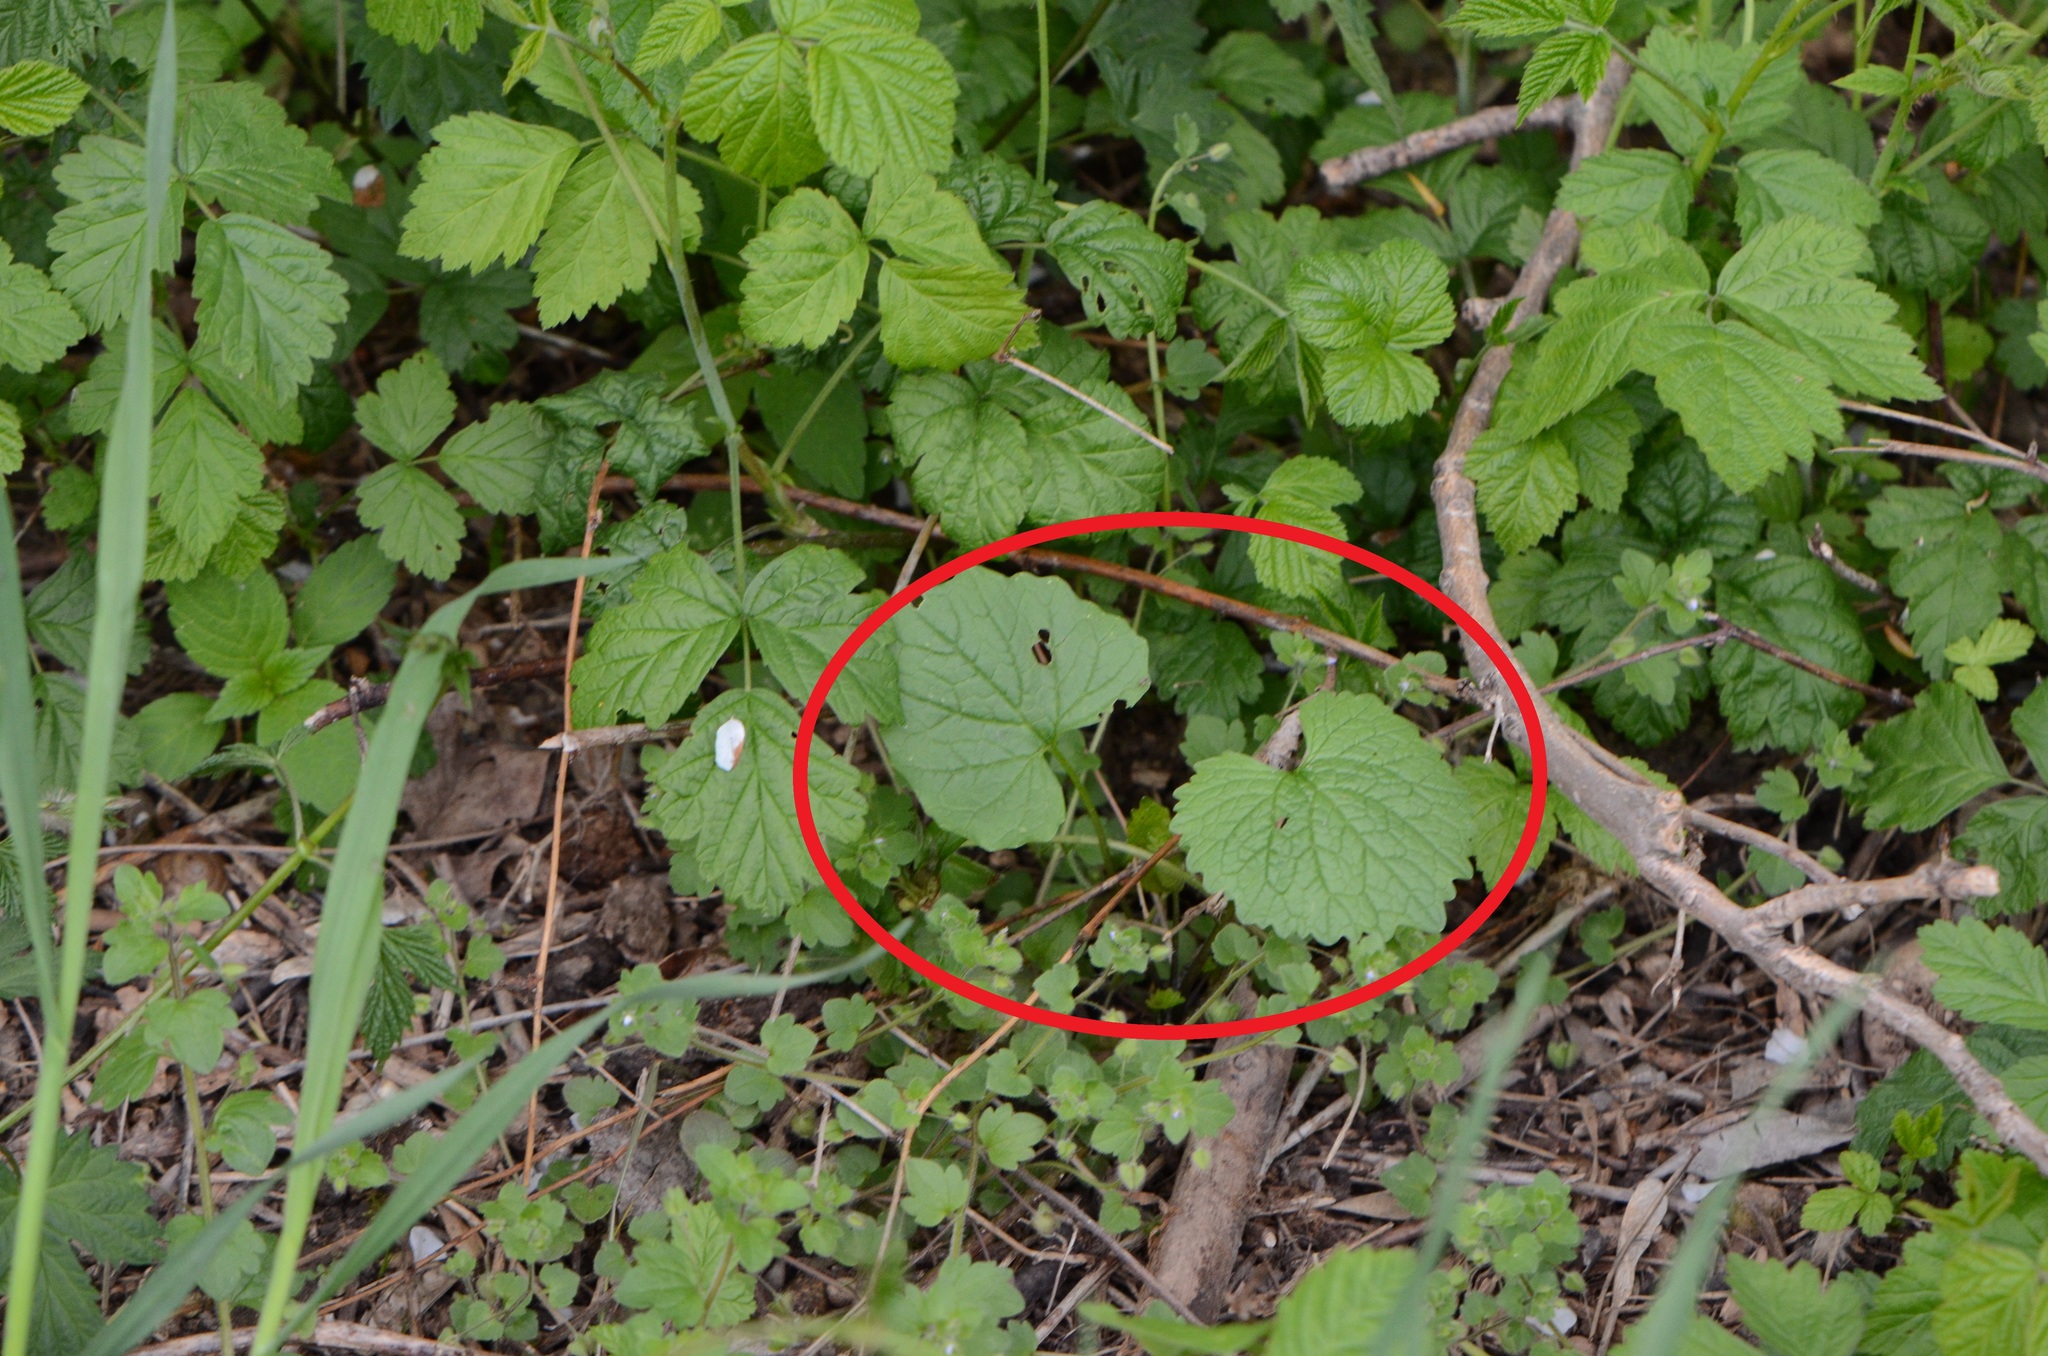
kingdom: Plantae
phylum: Tracheophyta
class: Magnoliopsida
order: Brassicales
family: Brassicaceae
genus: Alliaria
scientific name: Alliaria petiolata
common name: Garlic mustard
